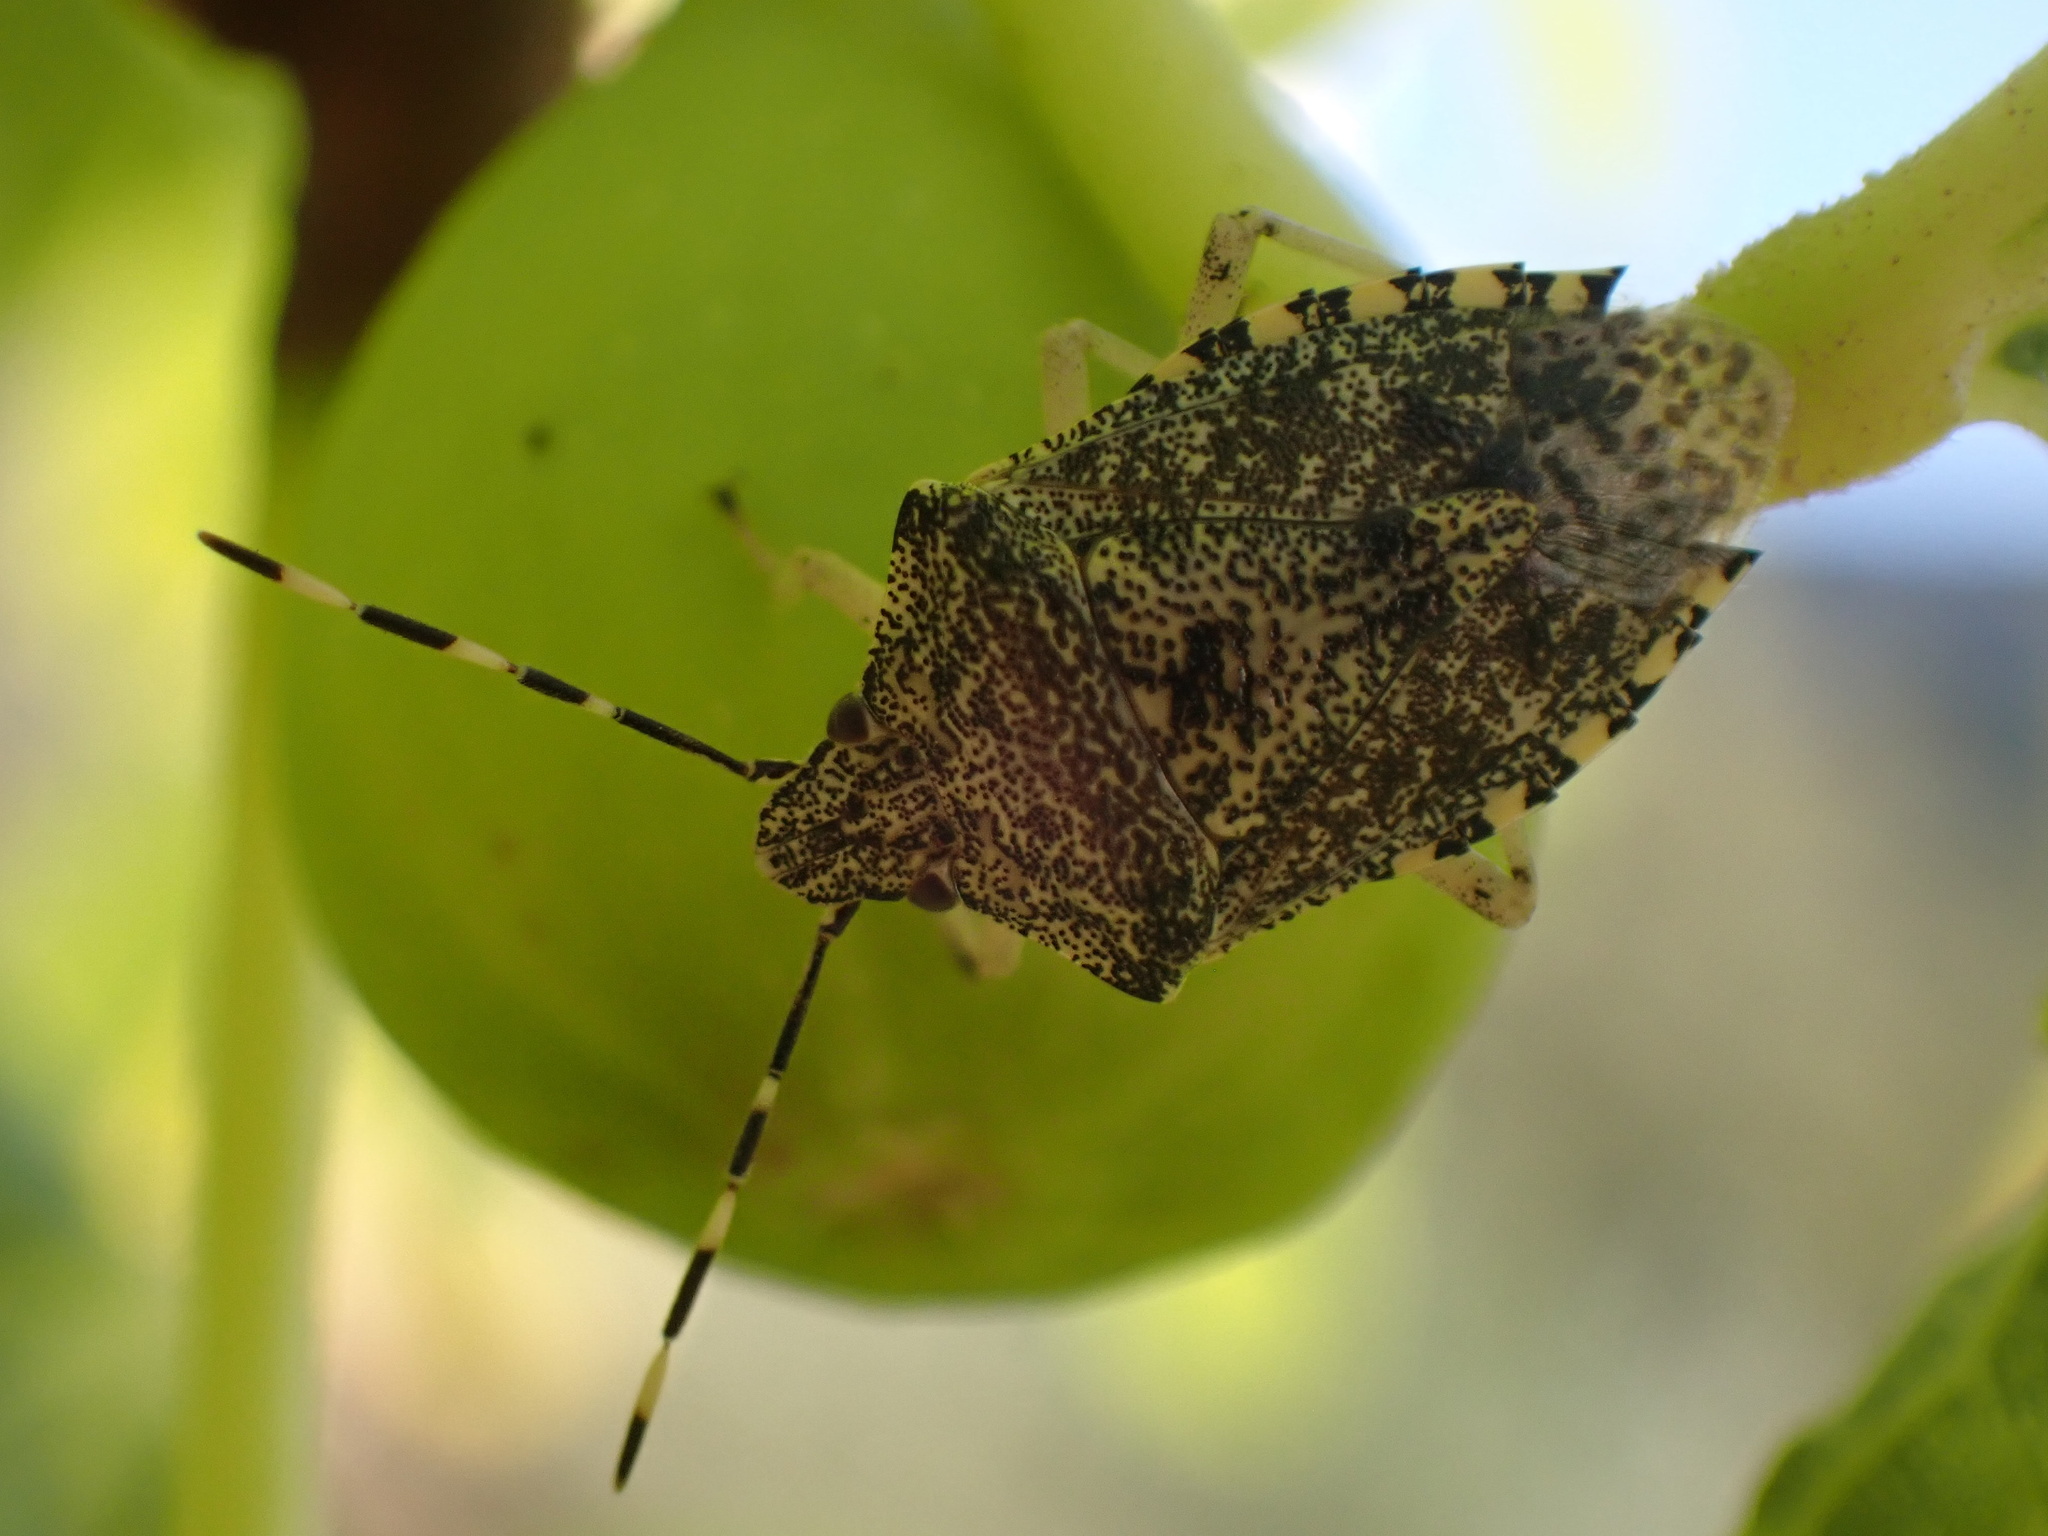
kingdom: Animalia
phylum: Arthropoda
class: Insecta
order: Hemiptera
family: Pentatomidae
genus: Rhaphigaster
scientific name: Rhaphigaster nebulosa
